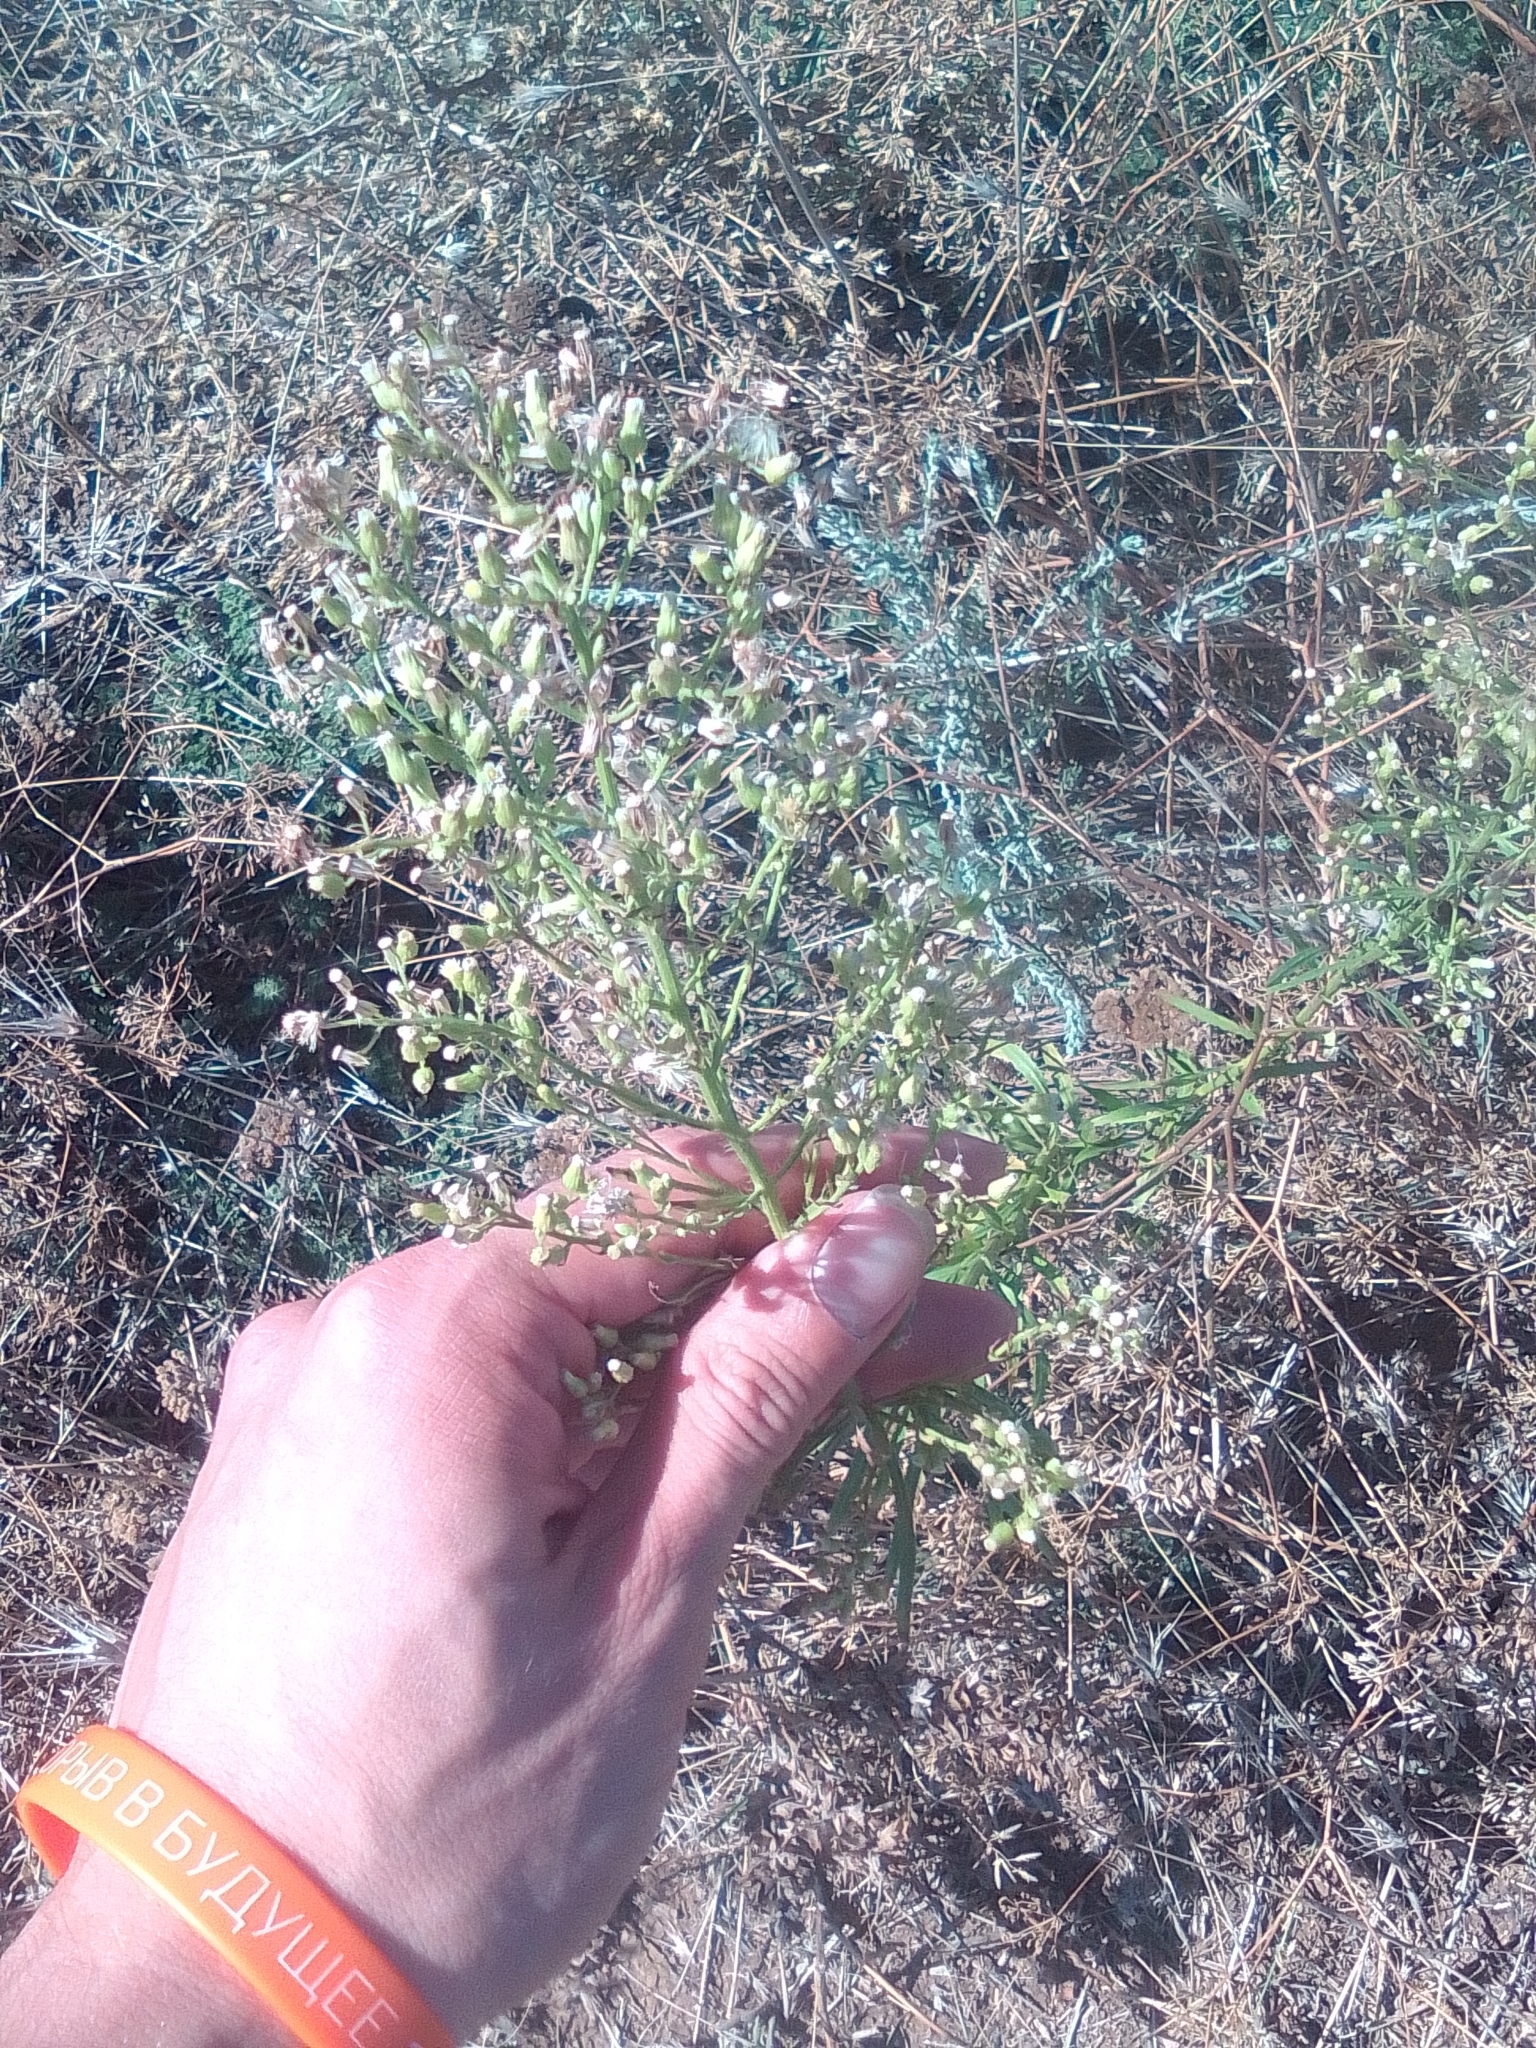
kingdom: Plantae
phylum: Tracheophyta
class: Magnoliopsida
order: Asterales
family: Asteraceae
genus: Erigeron
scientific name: Erigeron canadensis
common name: Canadian fleabane
